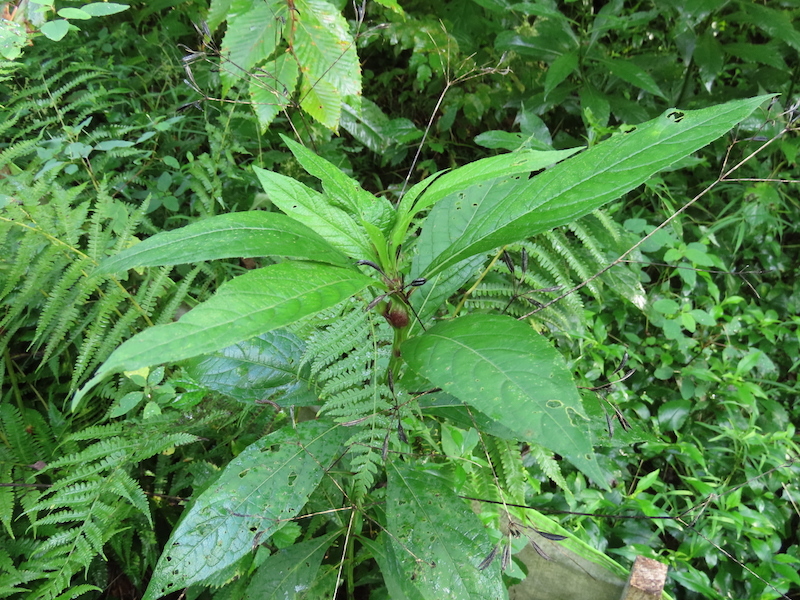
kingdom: Animalia
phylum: Arthropoda
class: Insecta
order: Diptera
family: Cecidomyiidae
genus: Neolasioptera
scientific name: Neolasioptera verbesinae
